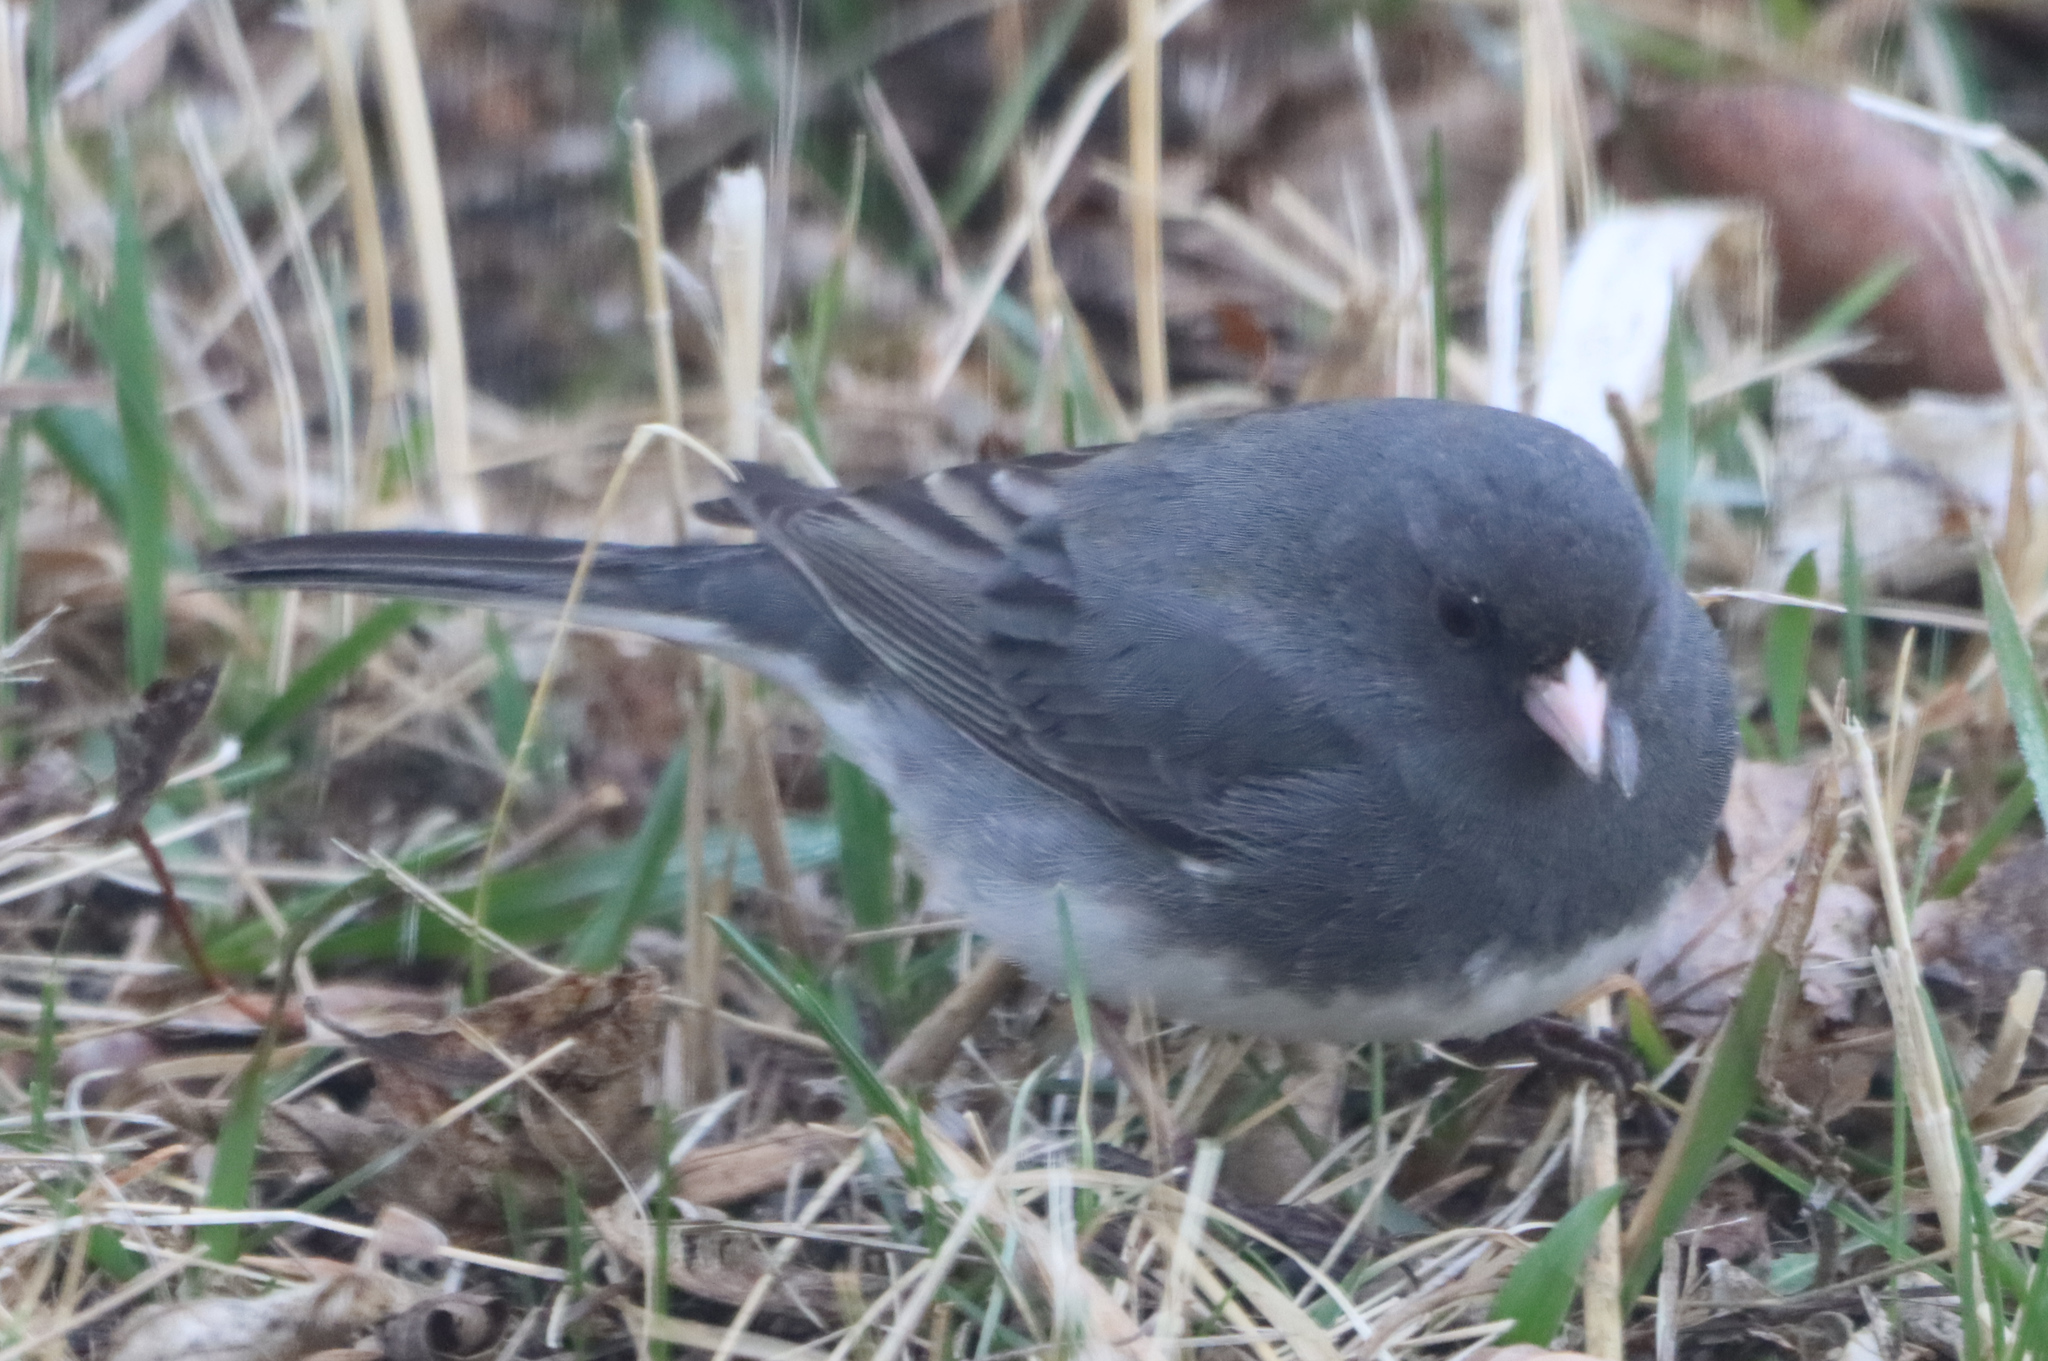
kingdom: Animalia
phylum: Chordata
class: Aves
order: Passeriformes
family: Passerellidae
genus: Junco
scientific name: Junco hyemalis
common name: Dark-eyed junco
